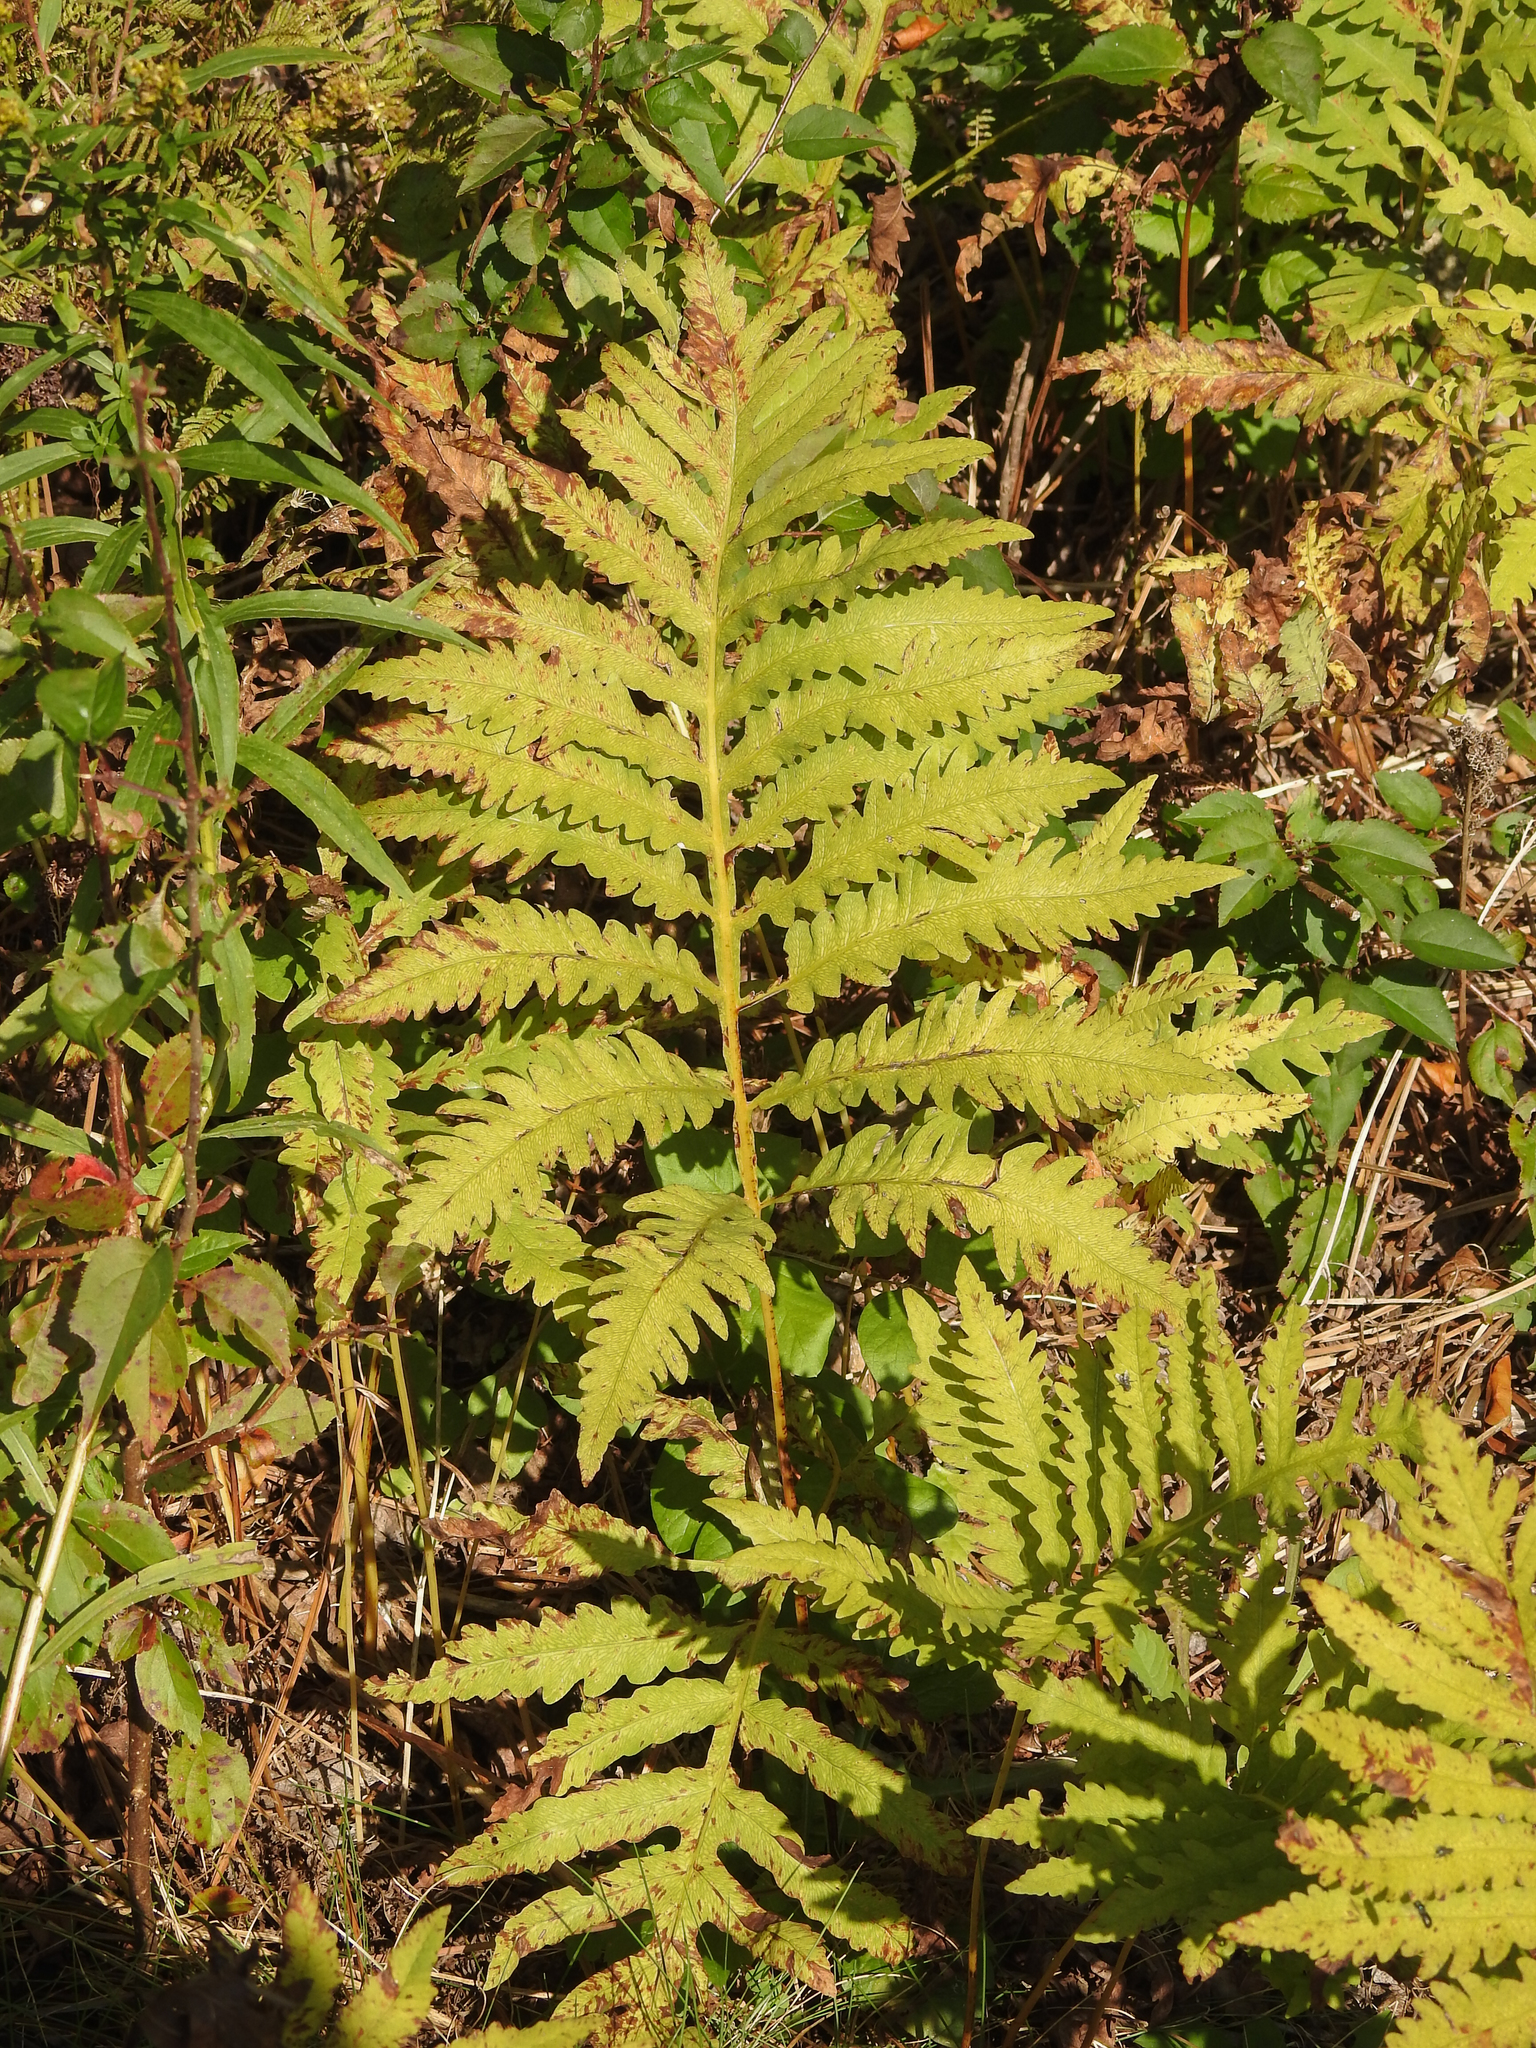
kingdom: Plantae
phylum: Tracheophyta
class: Polypodiopsida
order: Polypodiales
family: Onocleaceae
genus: Onoclea
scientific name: Onoclea sensibilis
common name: Sensitive fern
